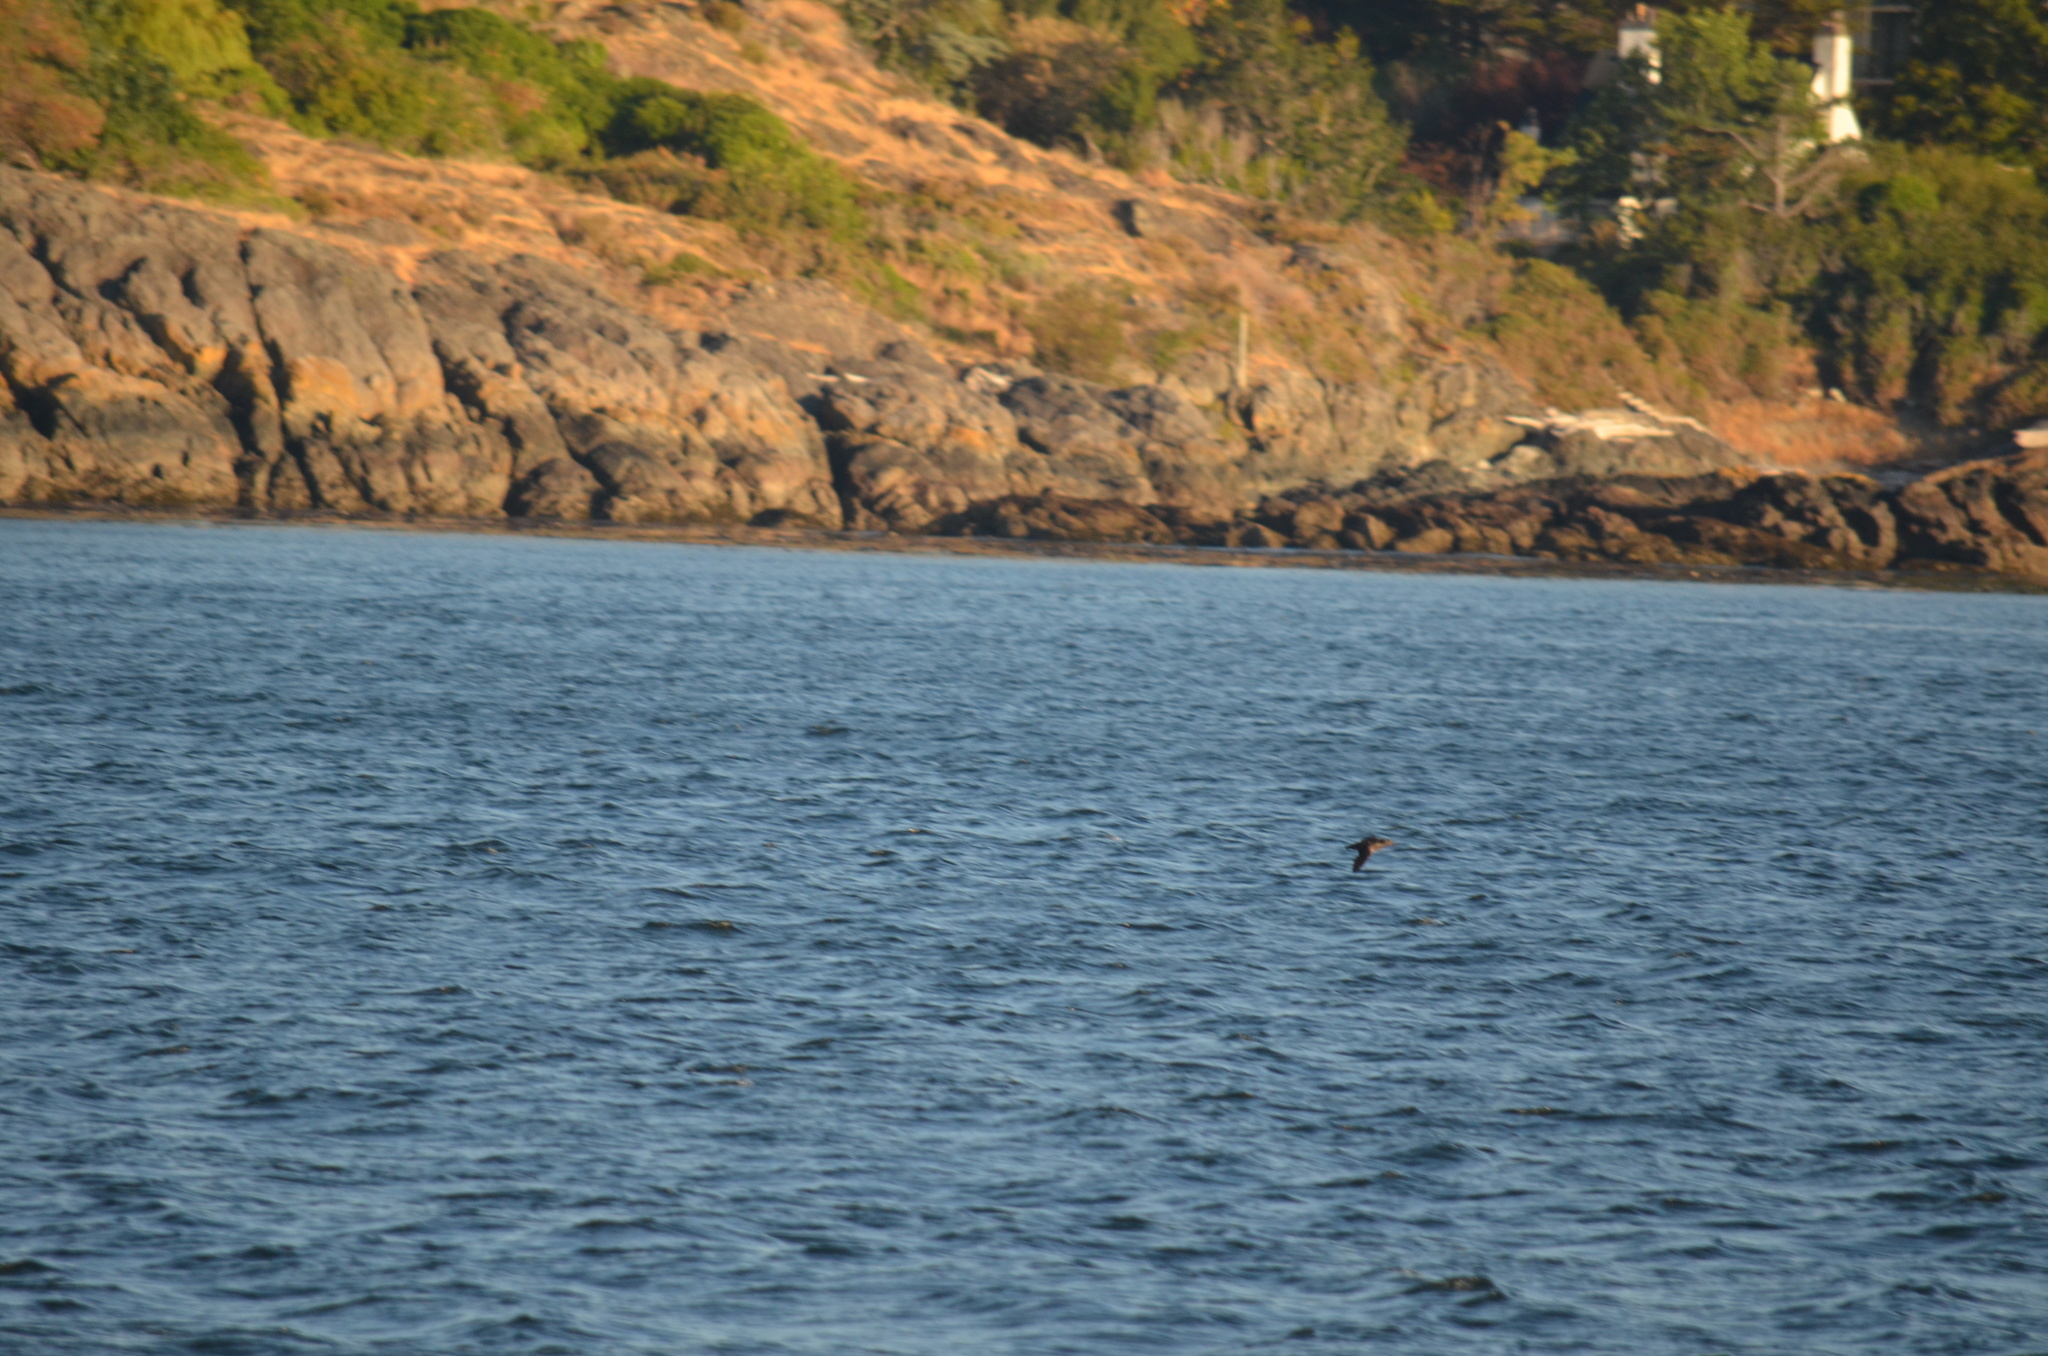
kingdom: Animalia
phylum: Chordata
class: Aves
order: Charadriiformes
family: Alcidae
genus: Cerorhinca
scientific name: Cerorhinca monocerata
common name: Rhinoceros auklet
